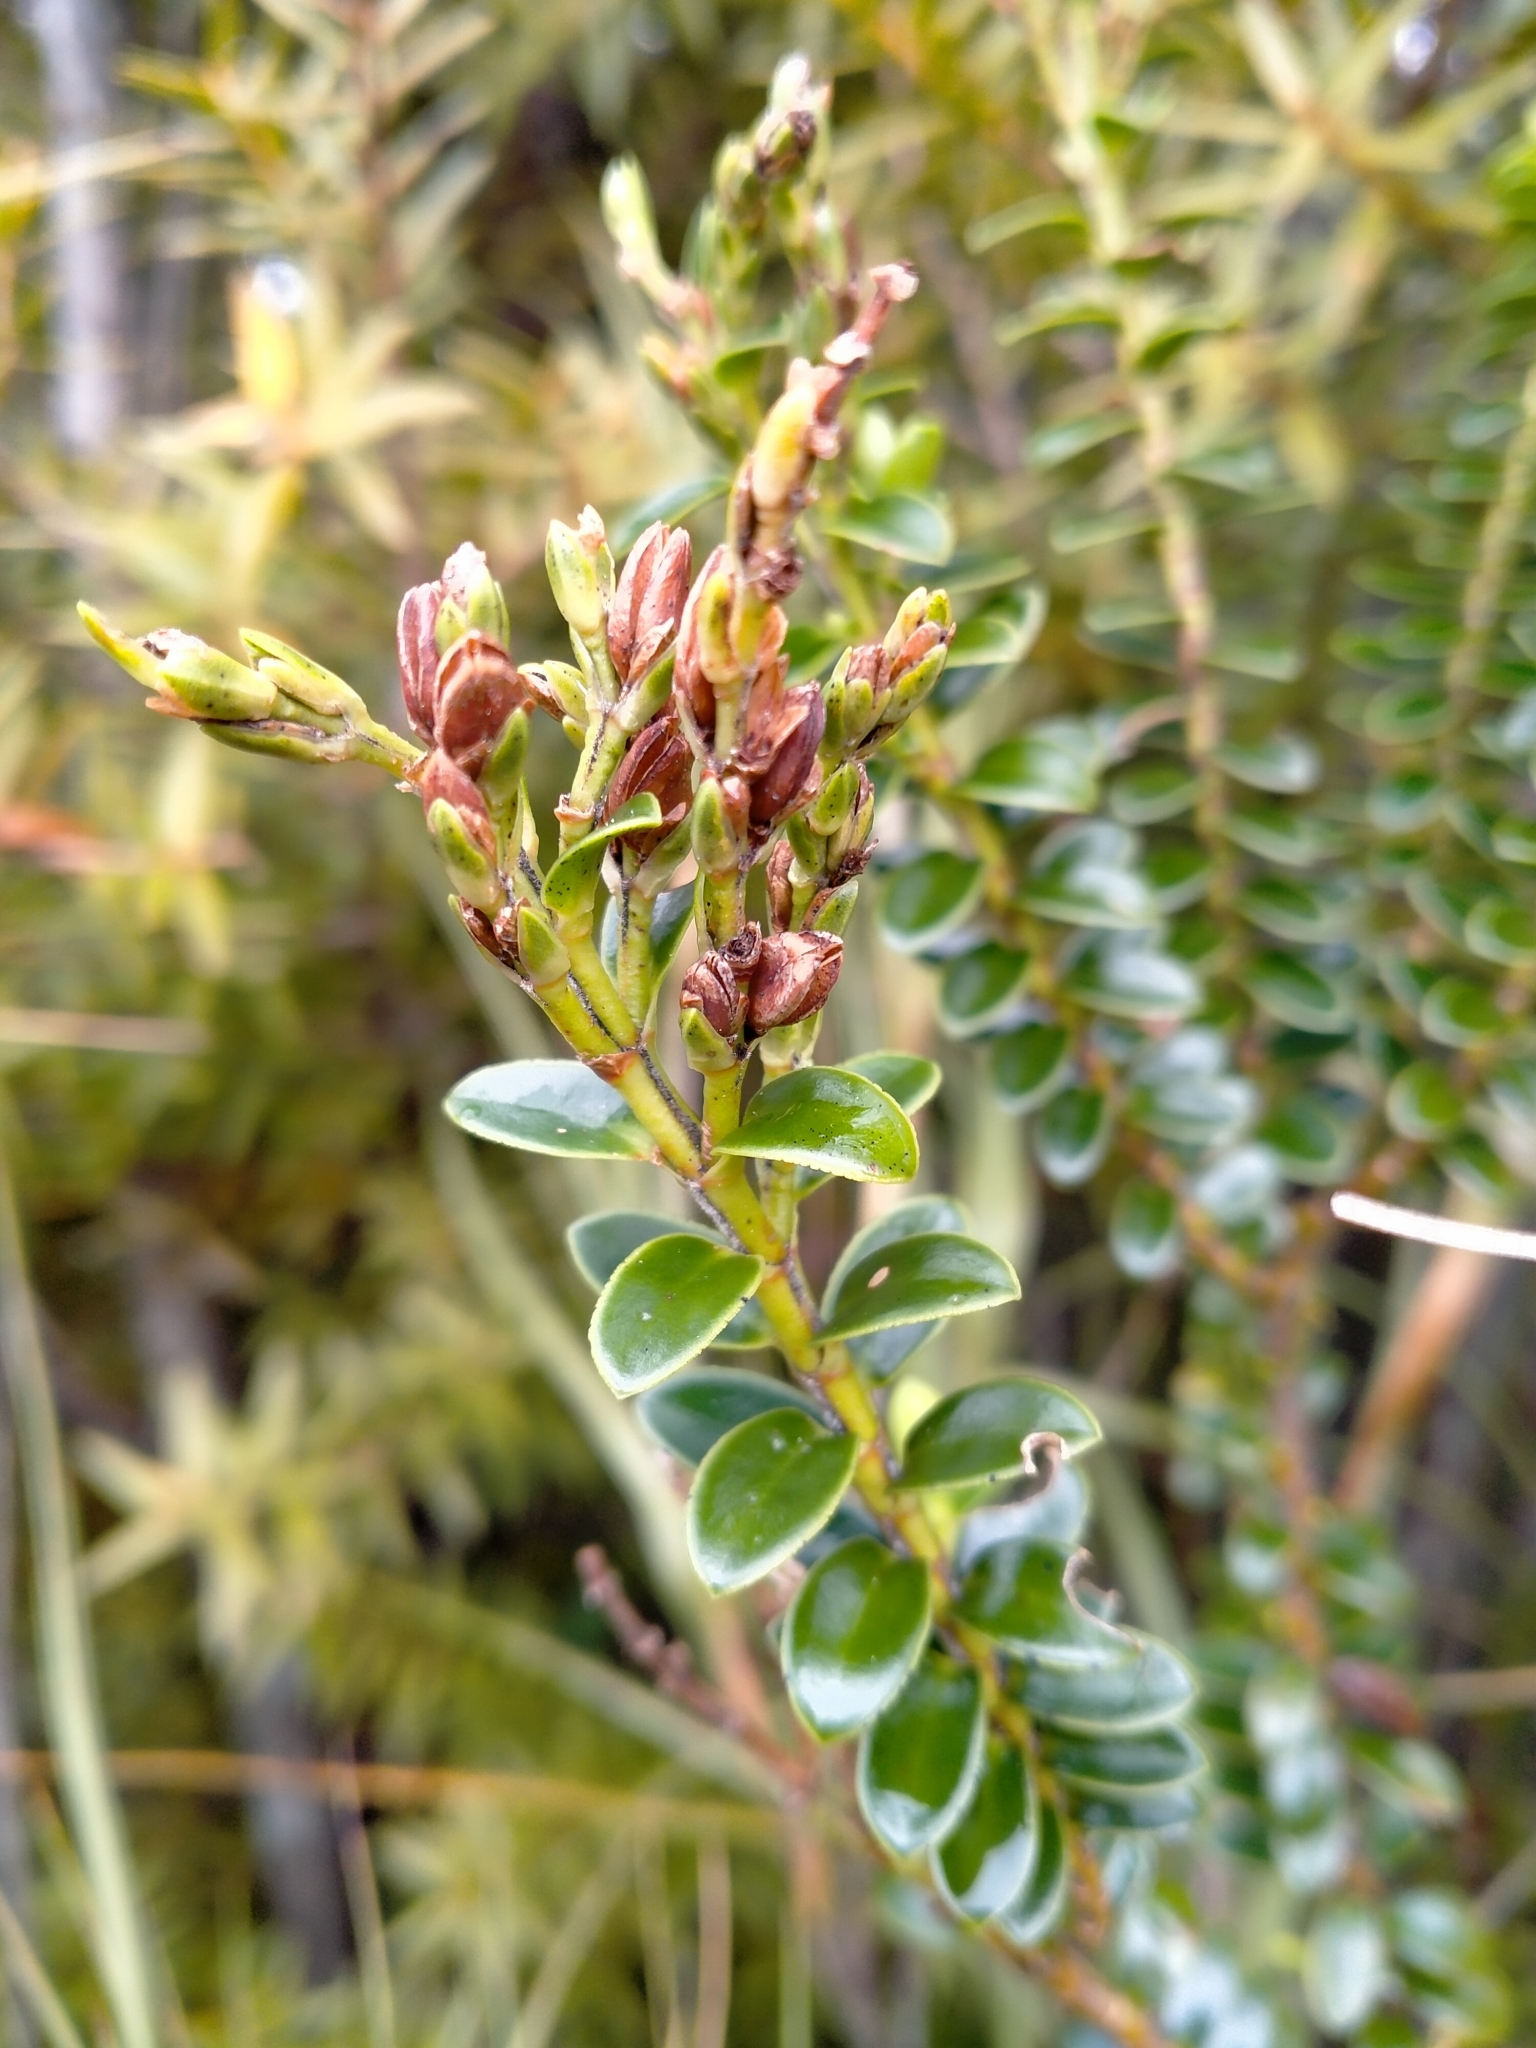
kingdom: Plantae
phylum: Tracheophyta
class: Magnoliopsida
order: Lamiales
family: Plantaginaceae
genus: Veronica
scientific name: Veronica odora
